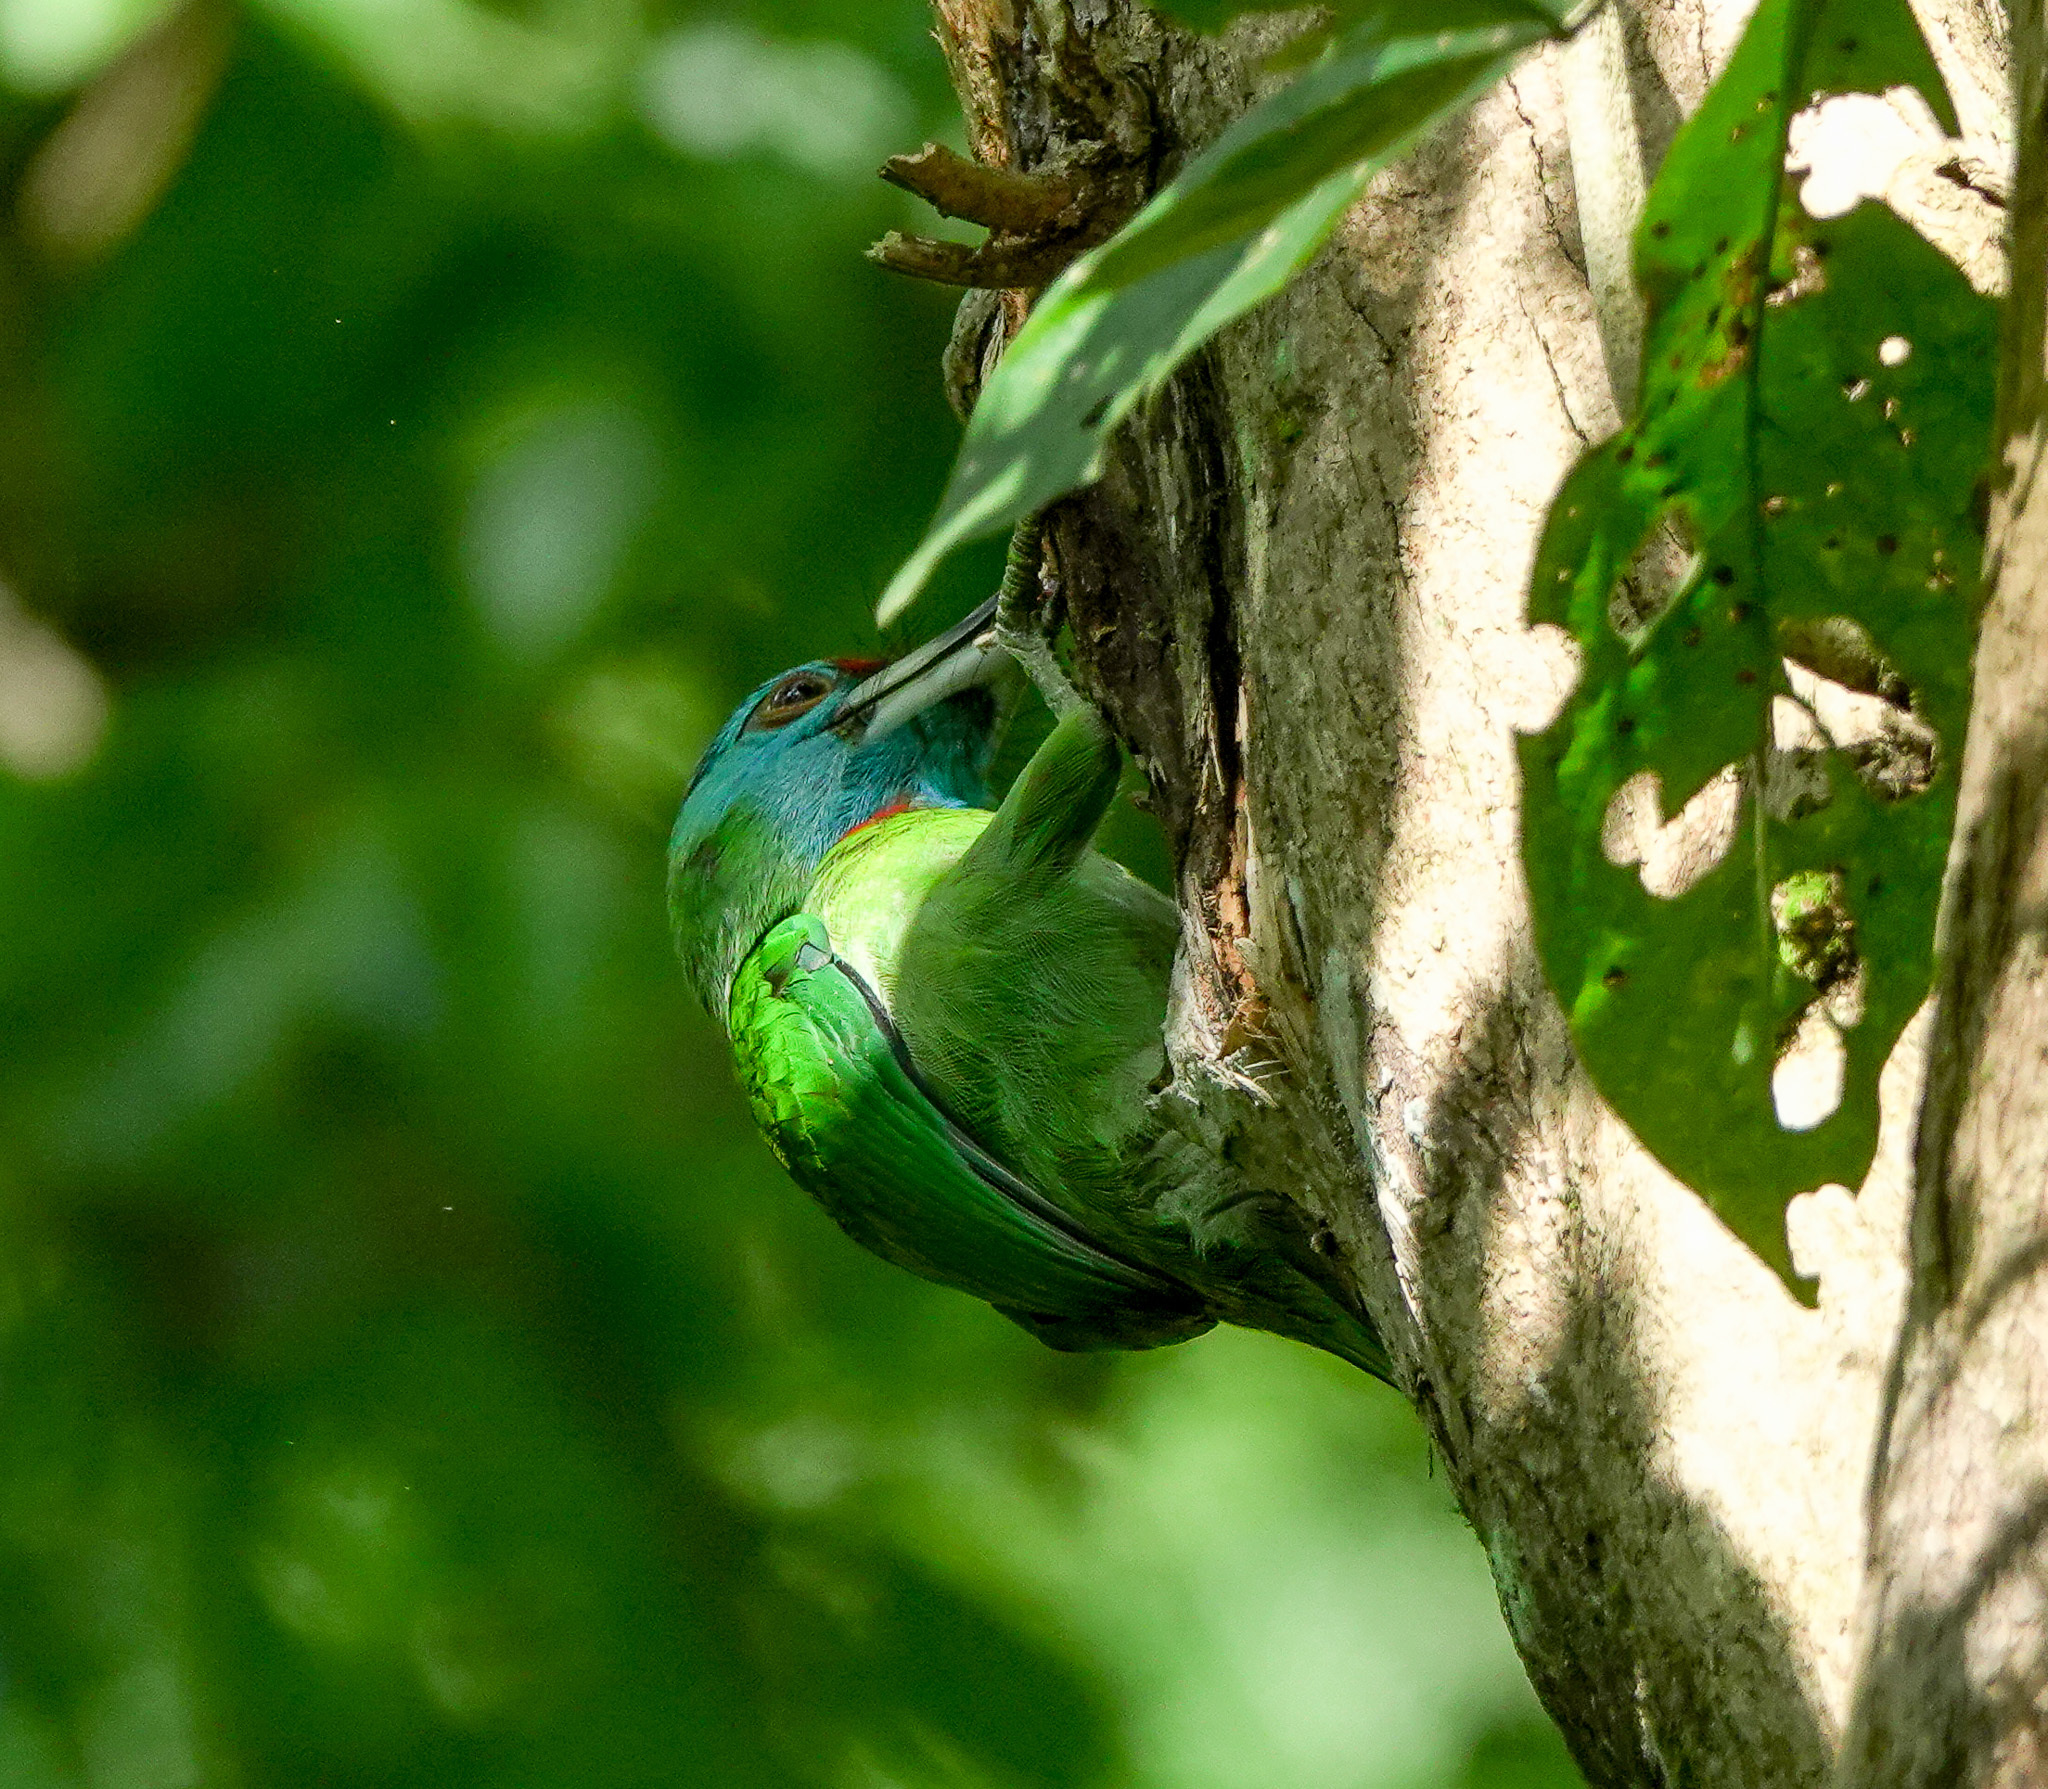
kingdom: Animalia
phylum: Chordata
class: Aves
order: Piciformes
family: Megalaimidae
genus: Psilopogon
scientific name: Psilopogon asiaticus
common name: Blue-throated barbet
